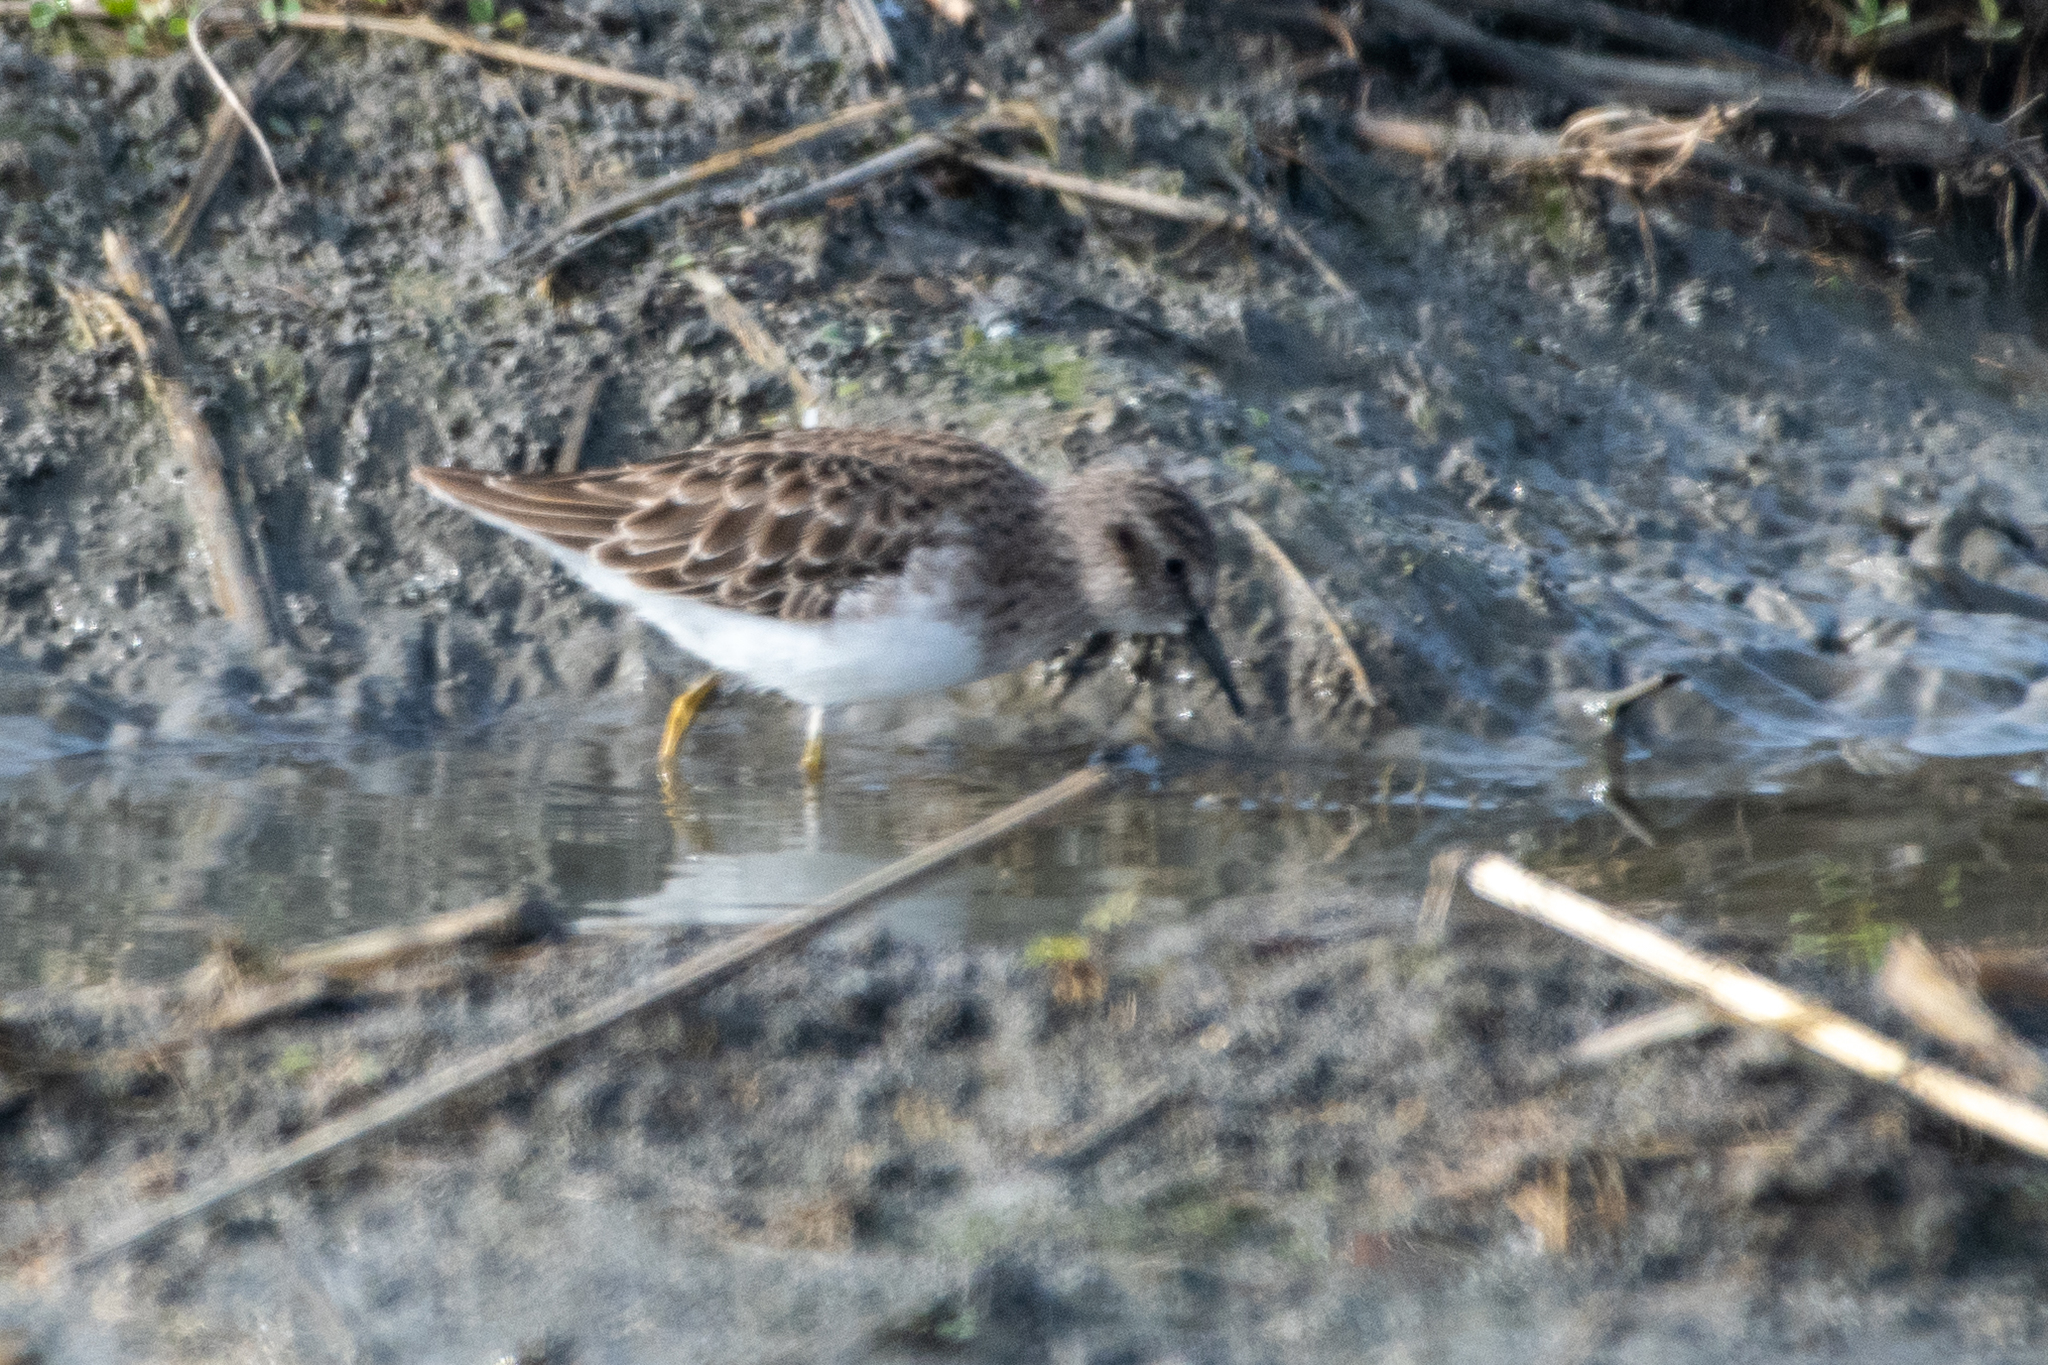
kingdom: Animalia
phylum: Chordata
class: Aves
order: Charadriiformes
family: Scolopacidae
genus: Calidris
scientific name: Calidris minutilla
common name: Least sandpiper
